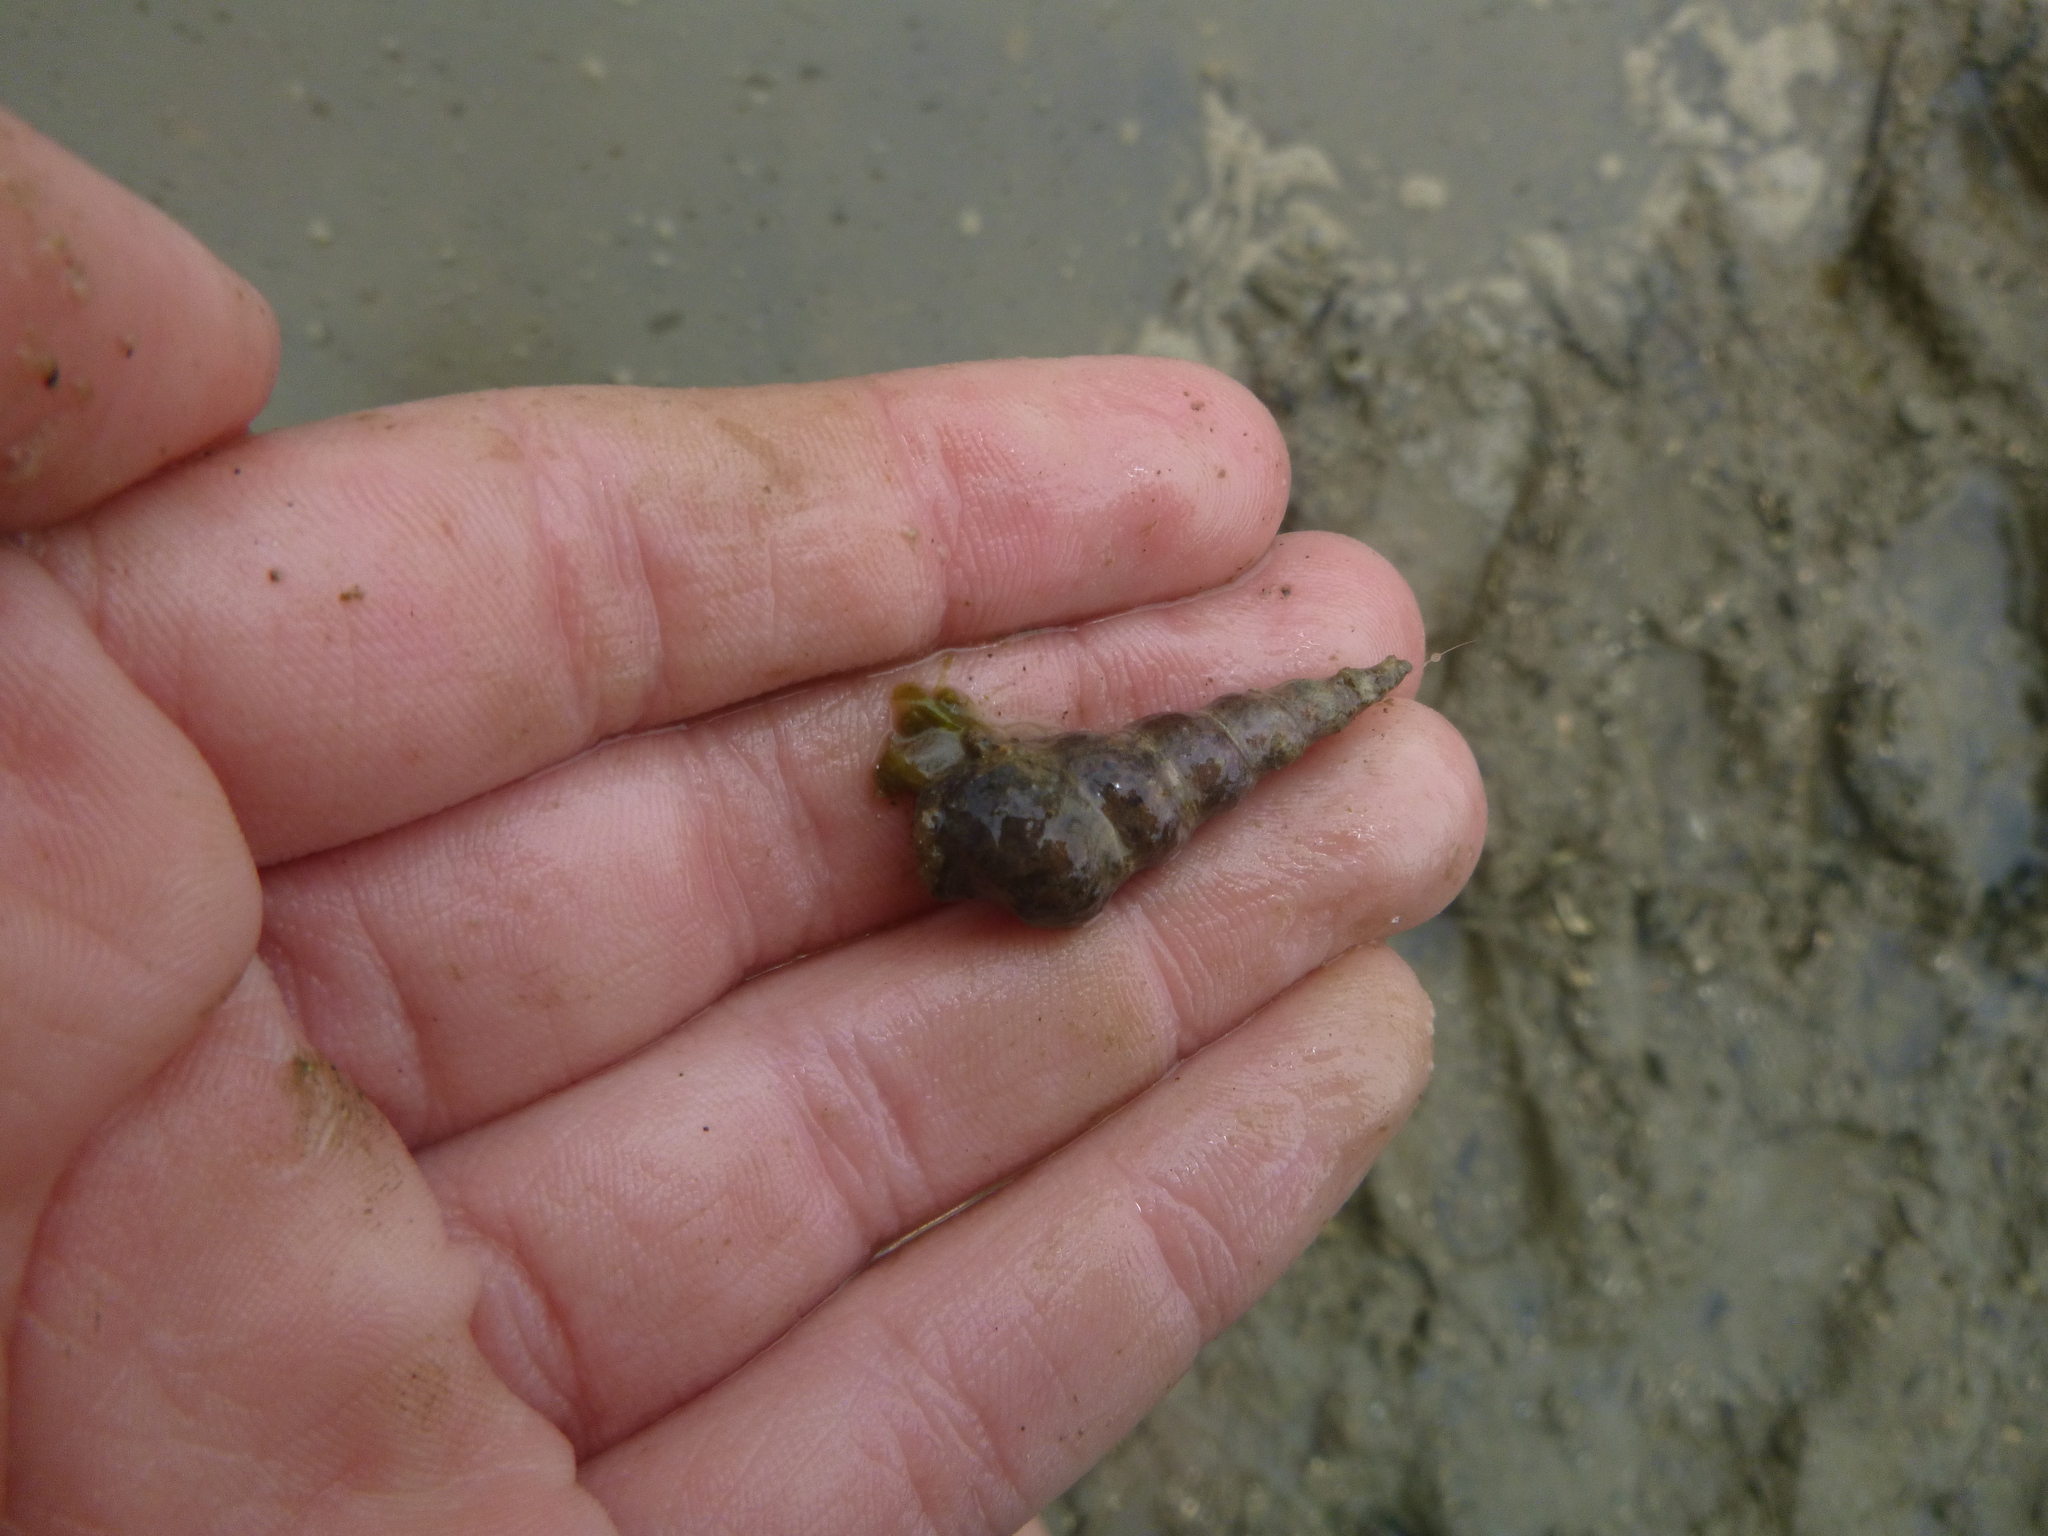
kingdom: Animalia
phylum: Mollusca
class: Gastropoda
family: Batillariidae
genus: Zeacumantus
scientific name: Zeacumantus lutulentus
